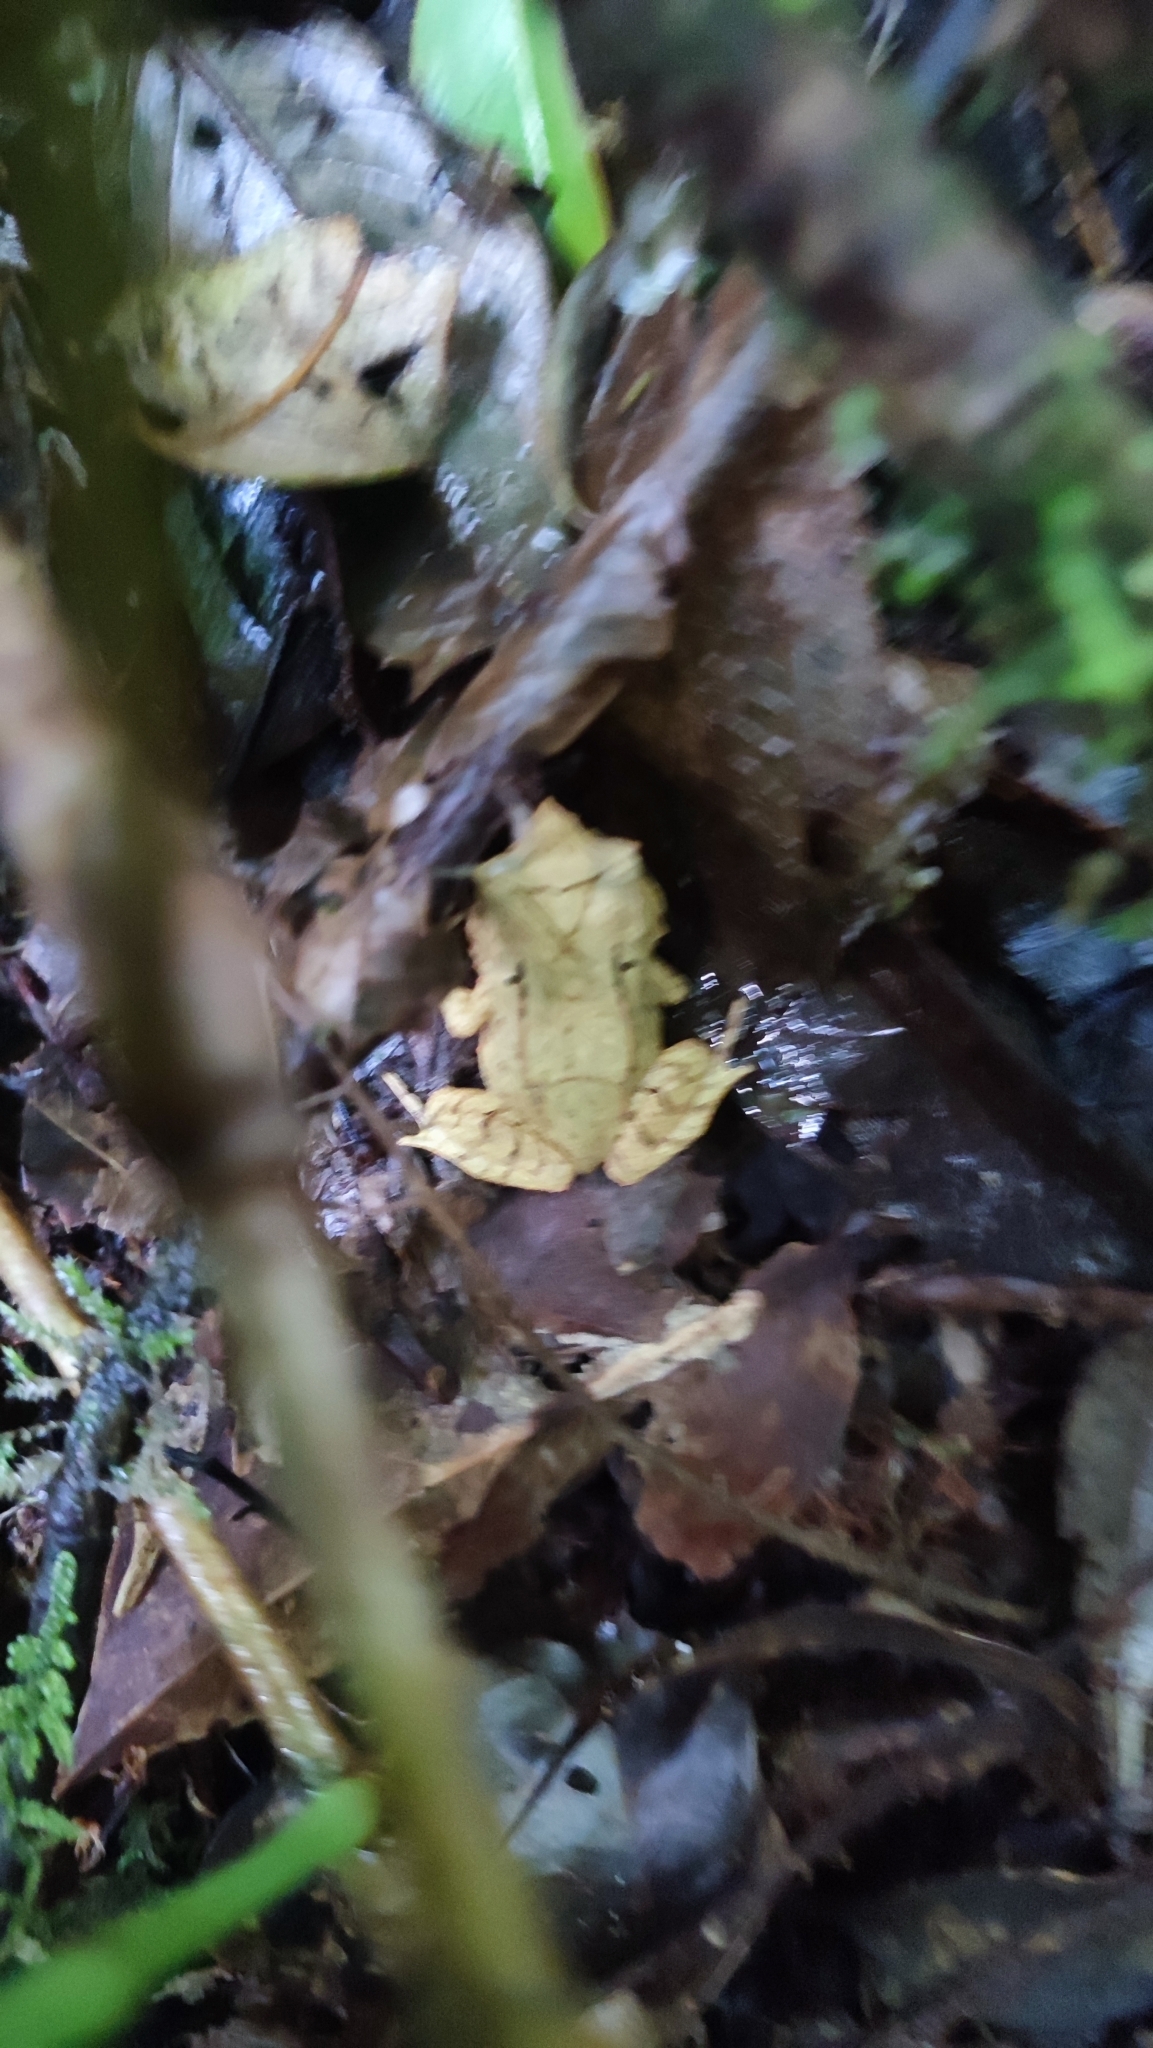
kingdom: Animalia
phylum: Chordata
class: Amphibia
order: Anura
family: Megophryidae
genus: Megophrys
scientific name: Megophrys montana
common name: Asian spadefoot toad
